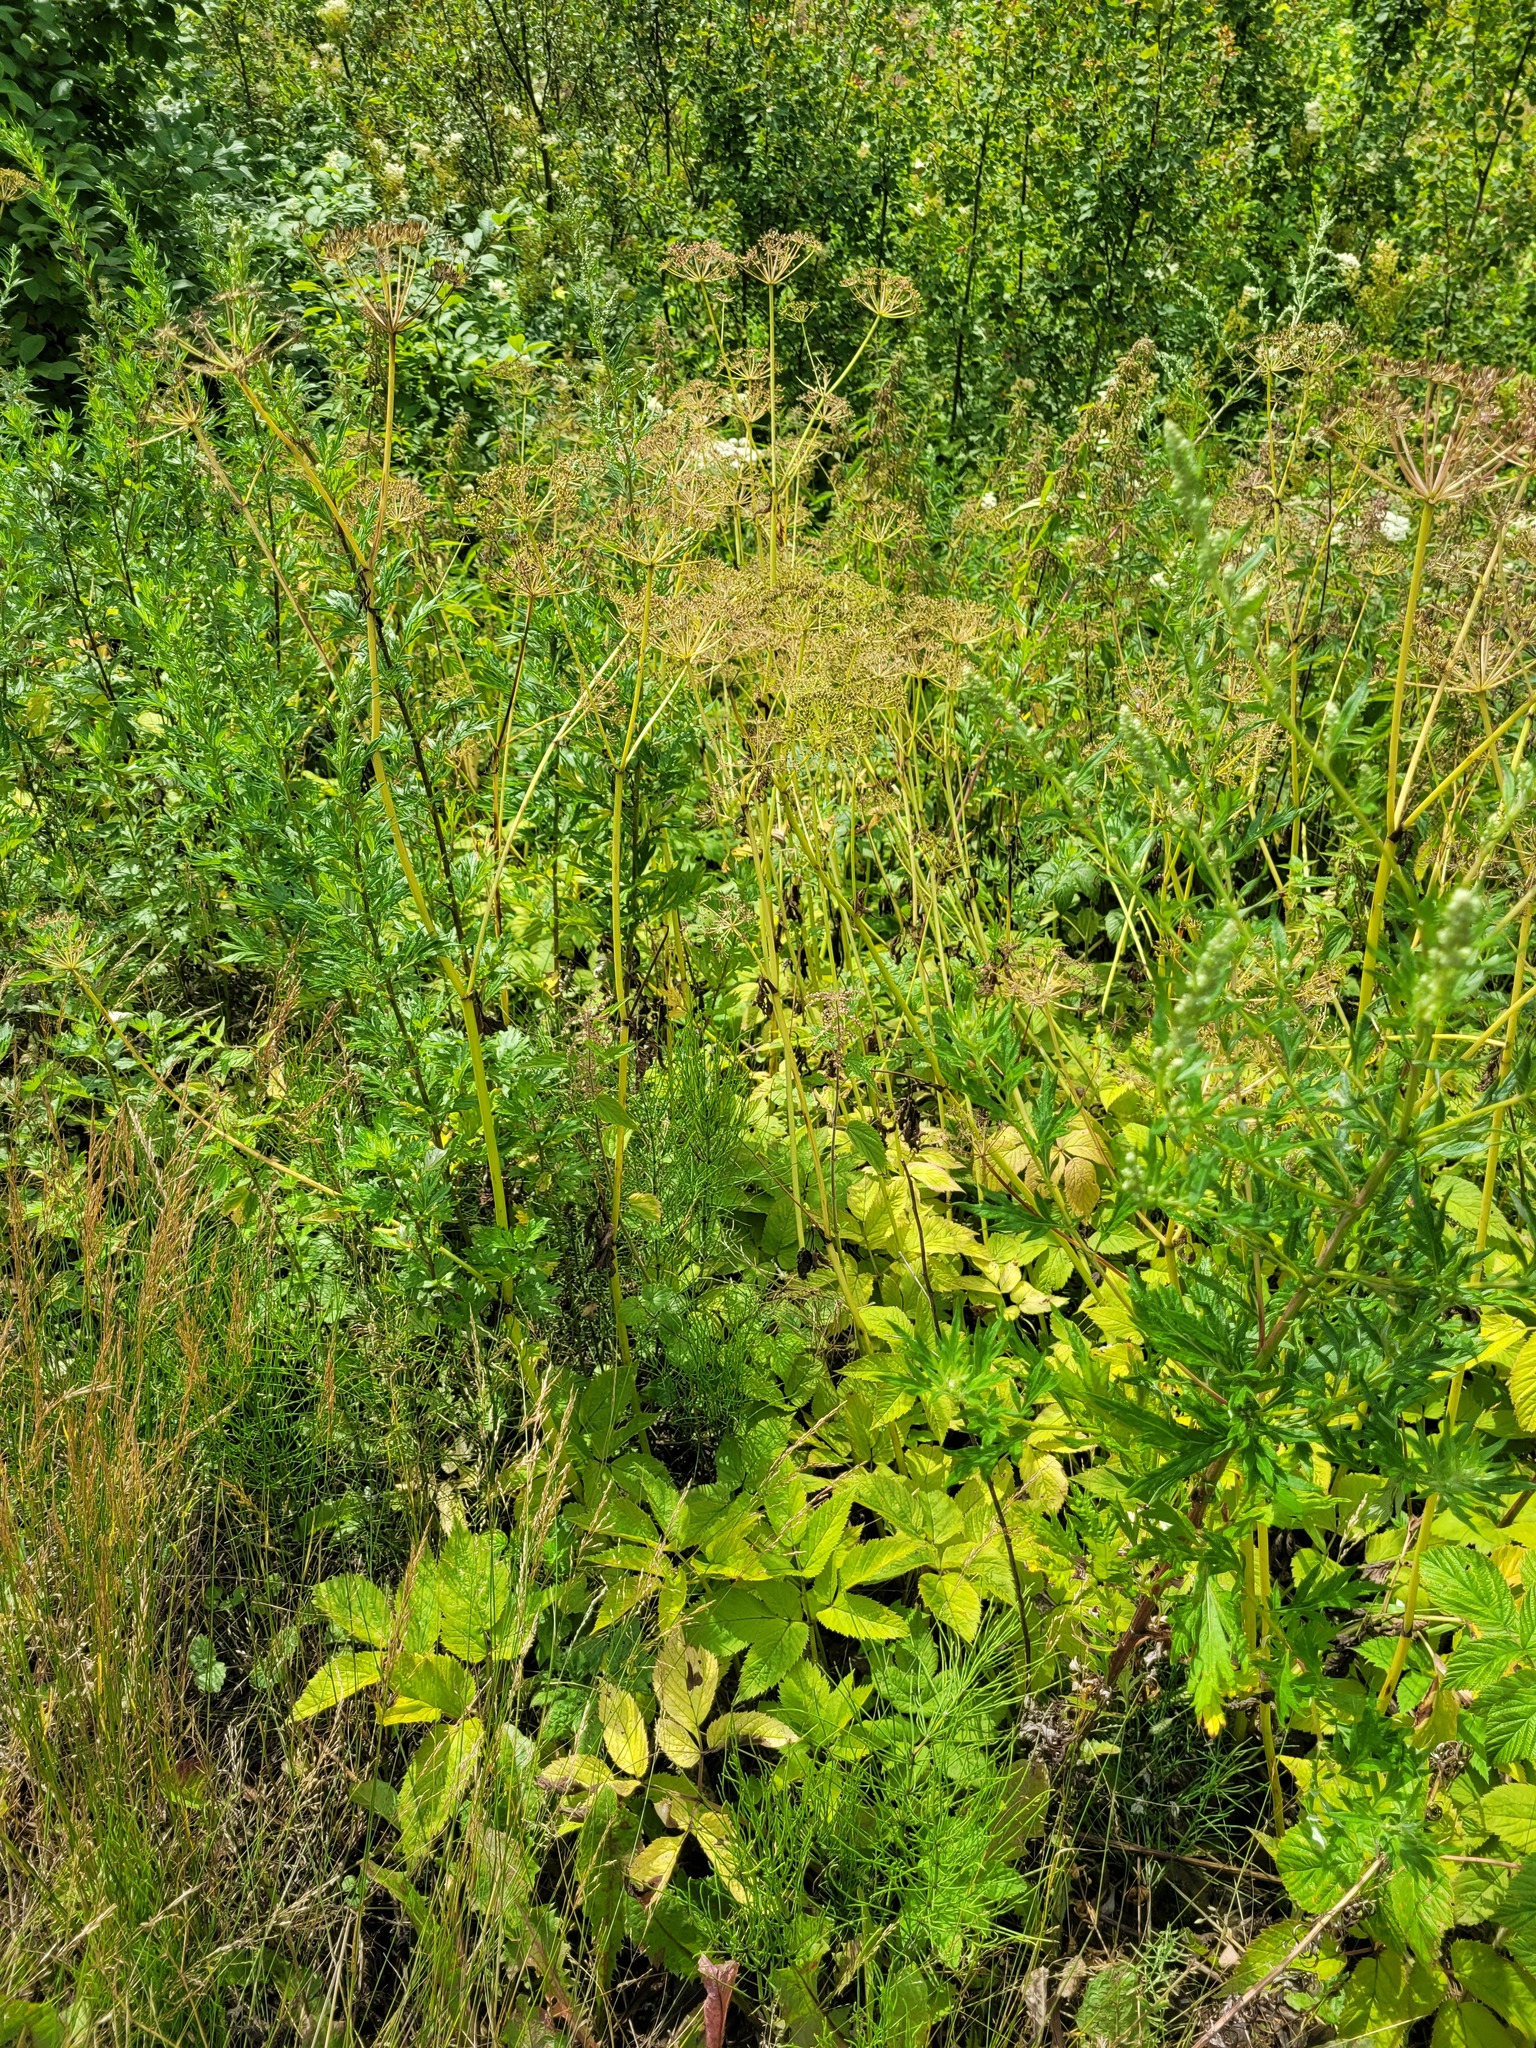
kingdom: Plantae
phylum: Tracheophyta
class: Magnoliopsida
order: Apiales
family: Apiaceae
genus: Aegopodium
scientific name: Aegopodium podagraria
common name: Ground-elder
